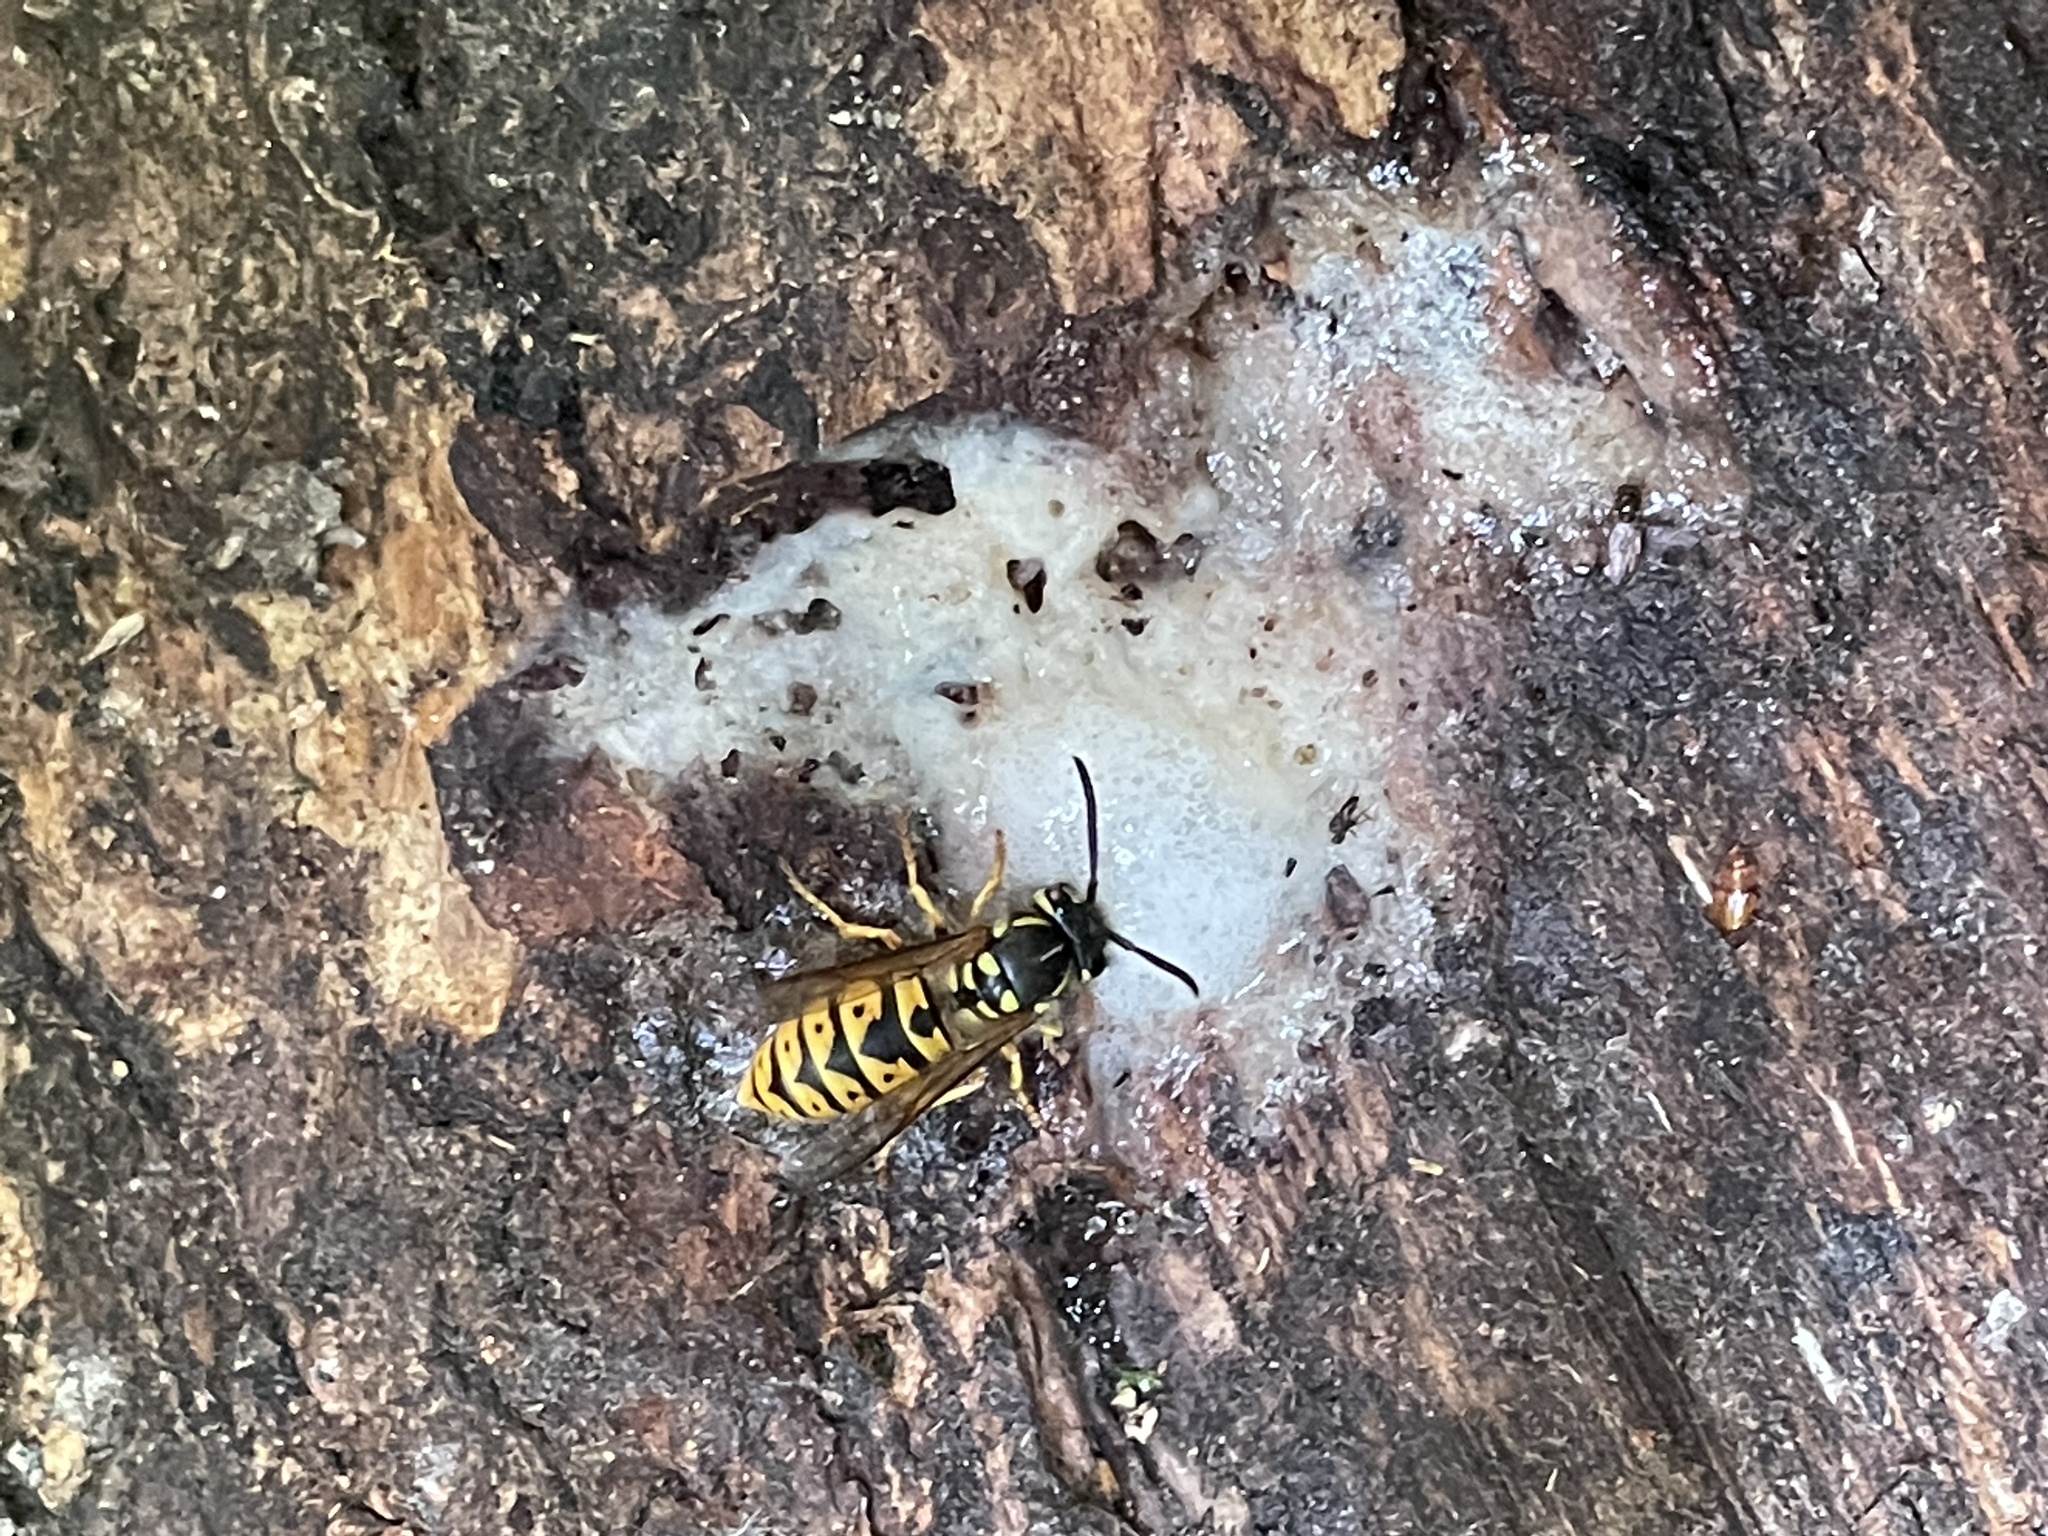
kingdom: Animalia
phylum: Arthropoda
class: Insecta
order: Hymenoptera
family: Vespidae
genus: Vespula
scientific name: Vespula germanica
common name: German wasp
